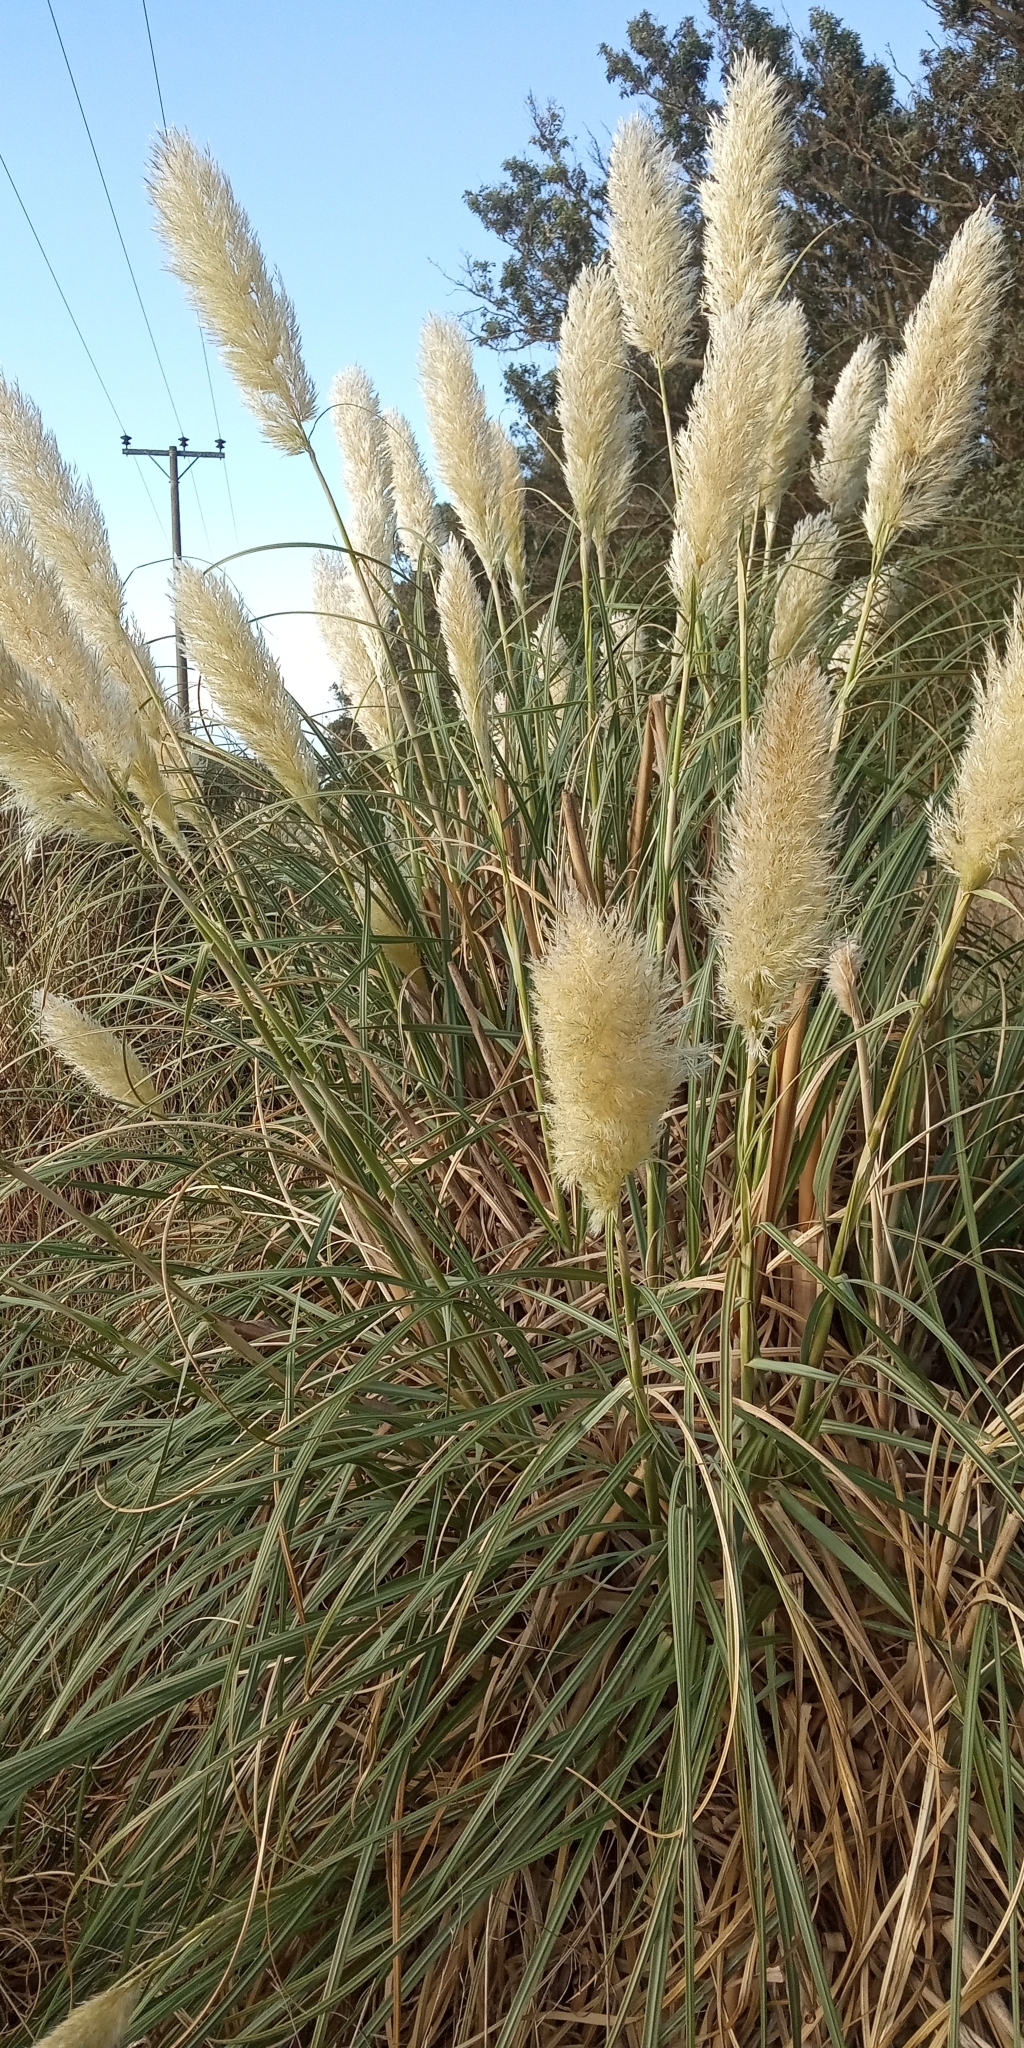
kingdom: Plantae
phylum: Tracheophyta
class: Liliopsida
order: Poales
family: Poaceae
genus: Cortaderia
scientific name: Cortaderia selloana
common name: Uruguayan pampas grass
